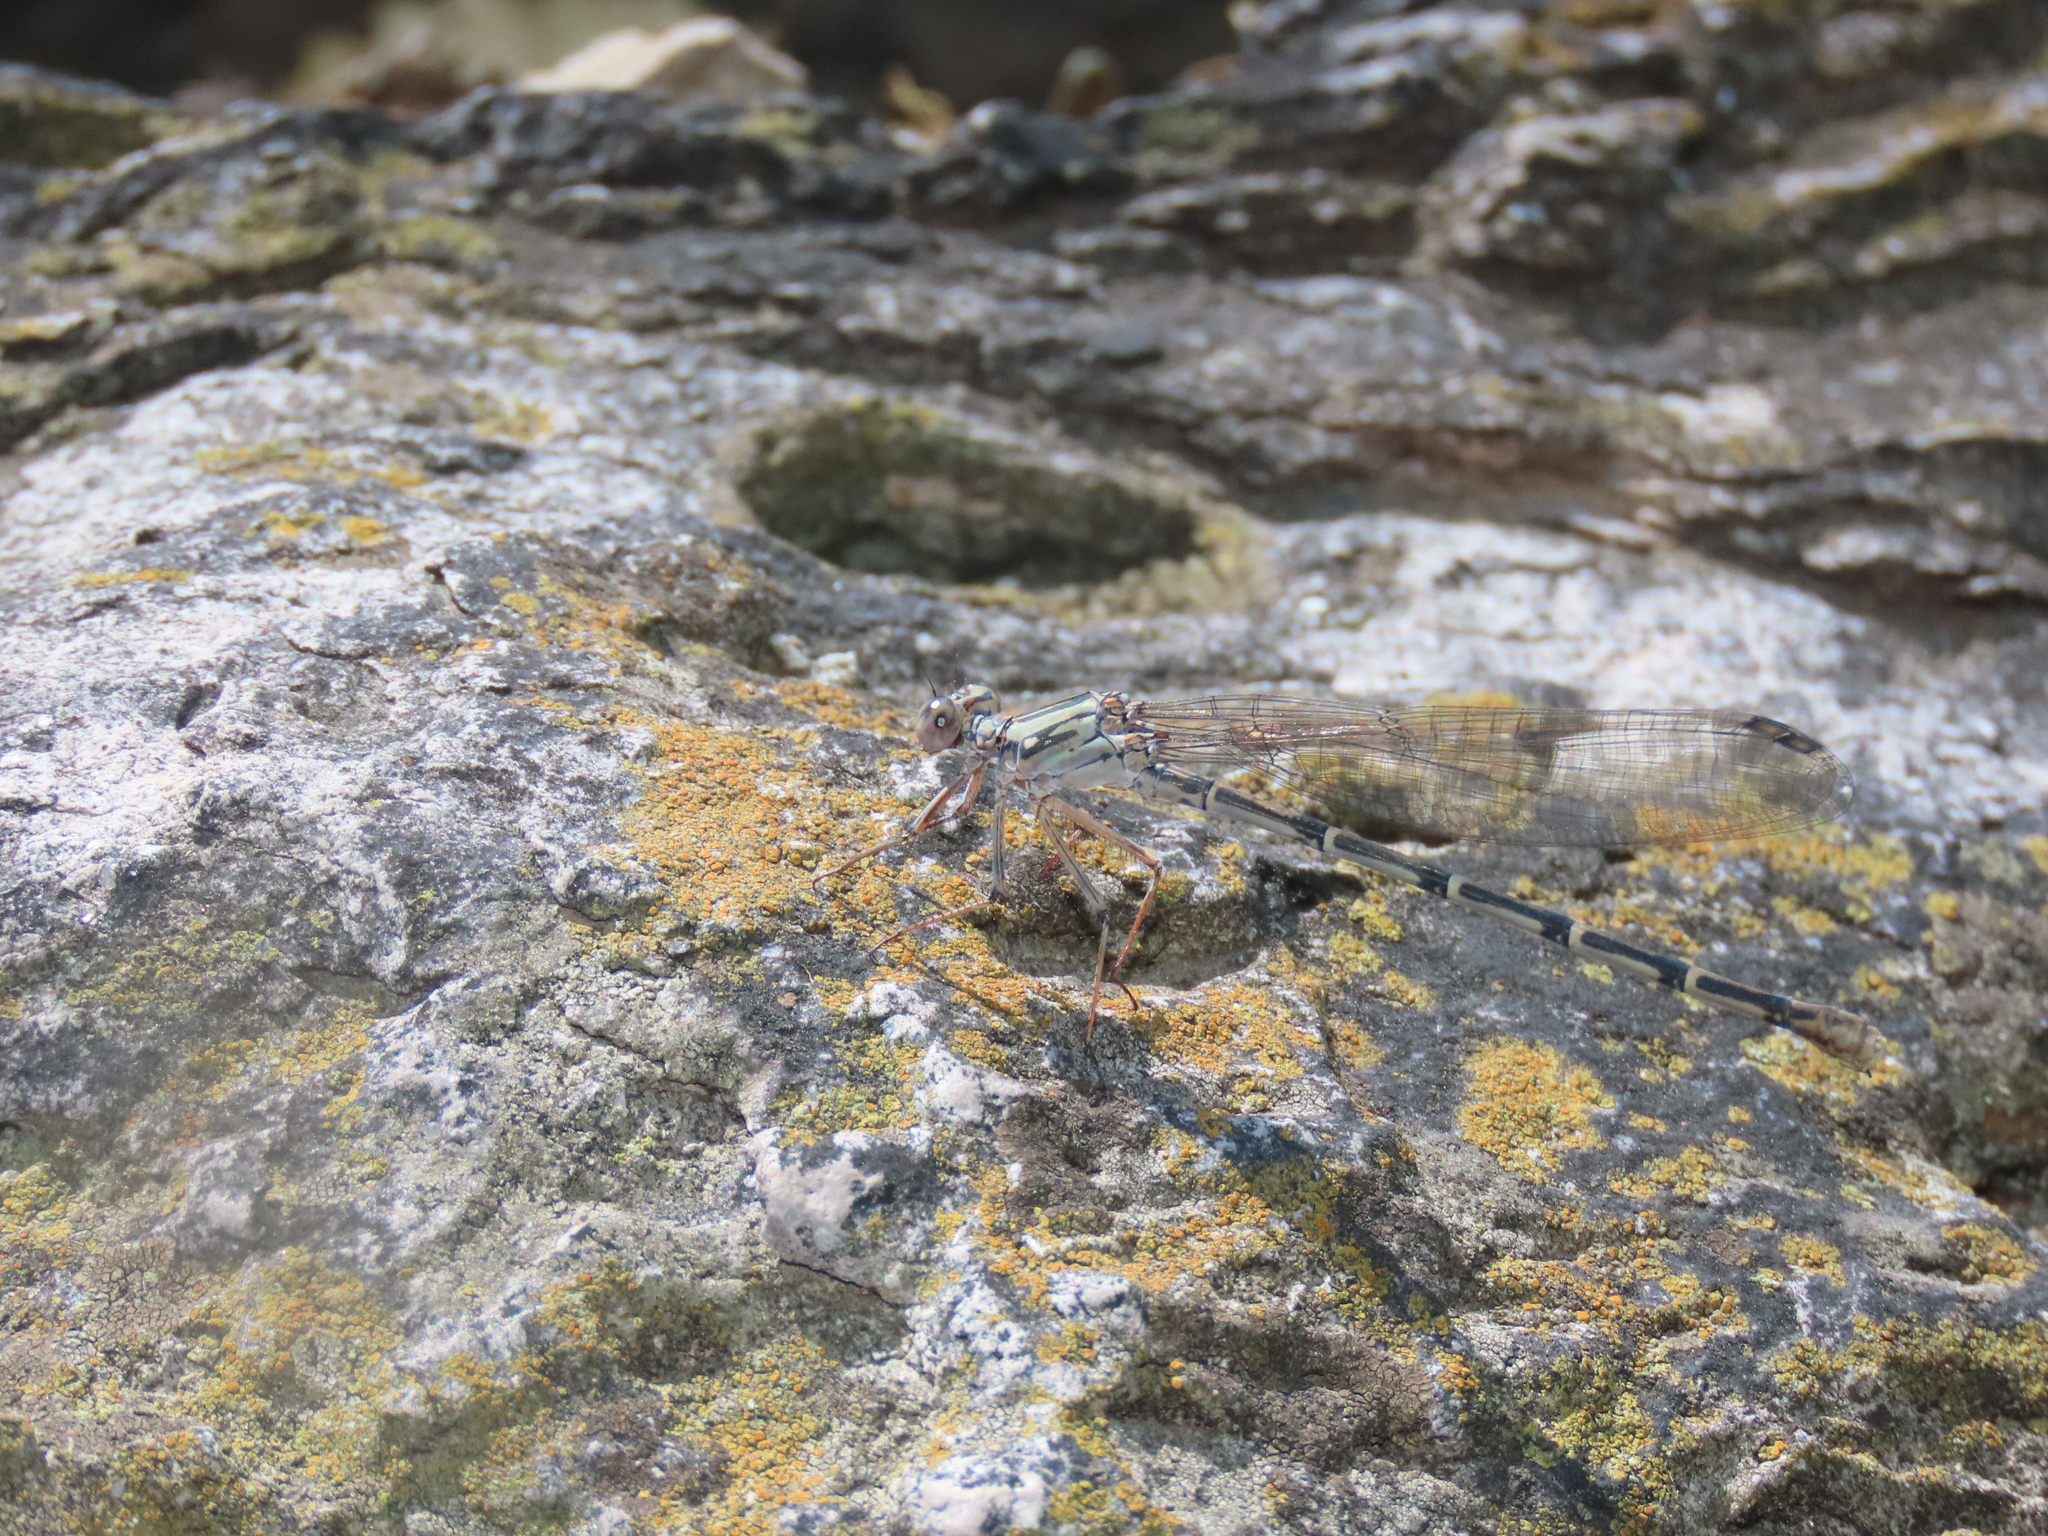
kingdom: Animalia
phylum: Arthropoda
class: Insecta
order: Odonata
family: Coenagrionidae
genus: Argia
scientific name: Argia lugens
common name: Sooty dancer
